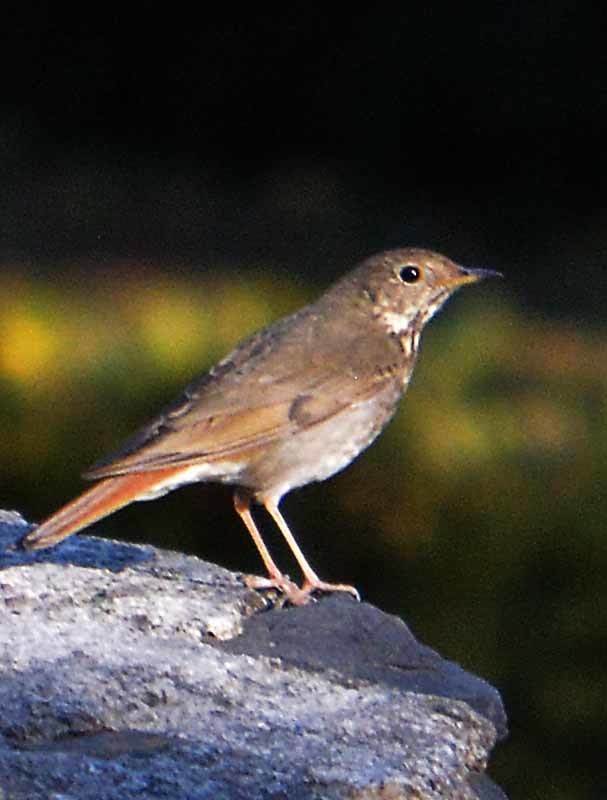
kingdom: Animalia
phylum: Chordata
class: Aves
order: Passeriformes
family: Turdidae
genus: Catharus
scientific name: Catharus guttatus
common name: Hermit thrush
